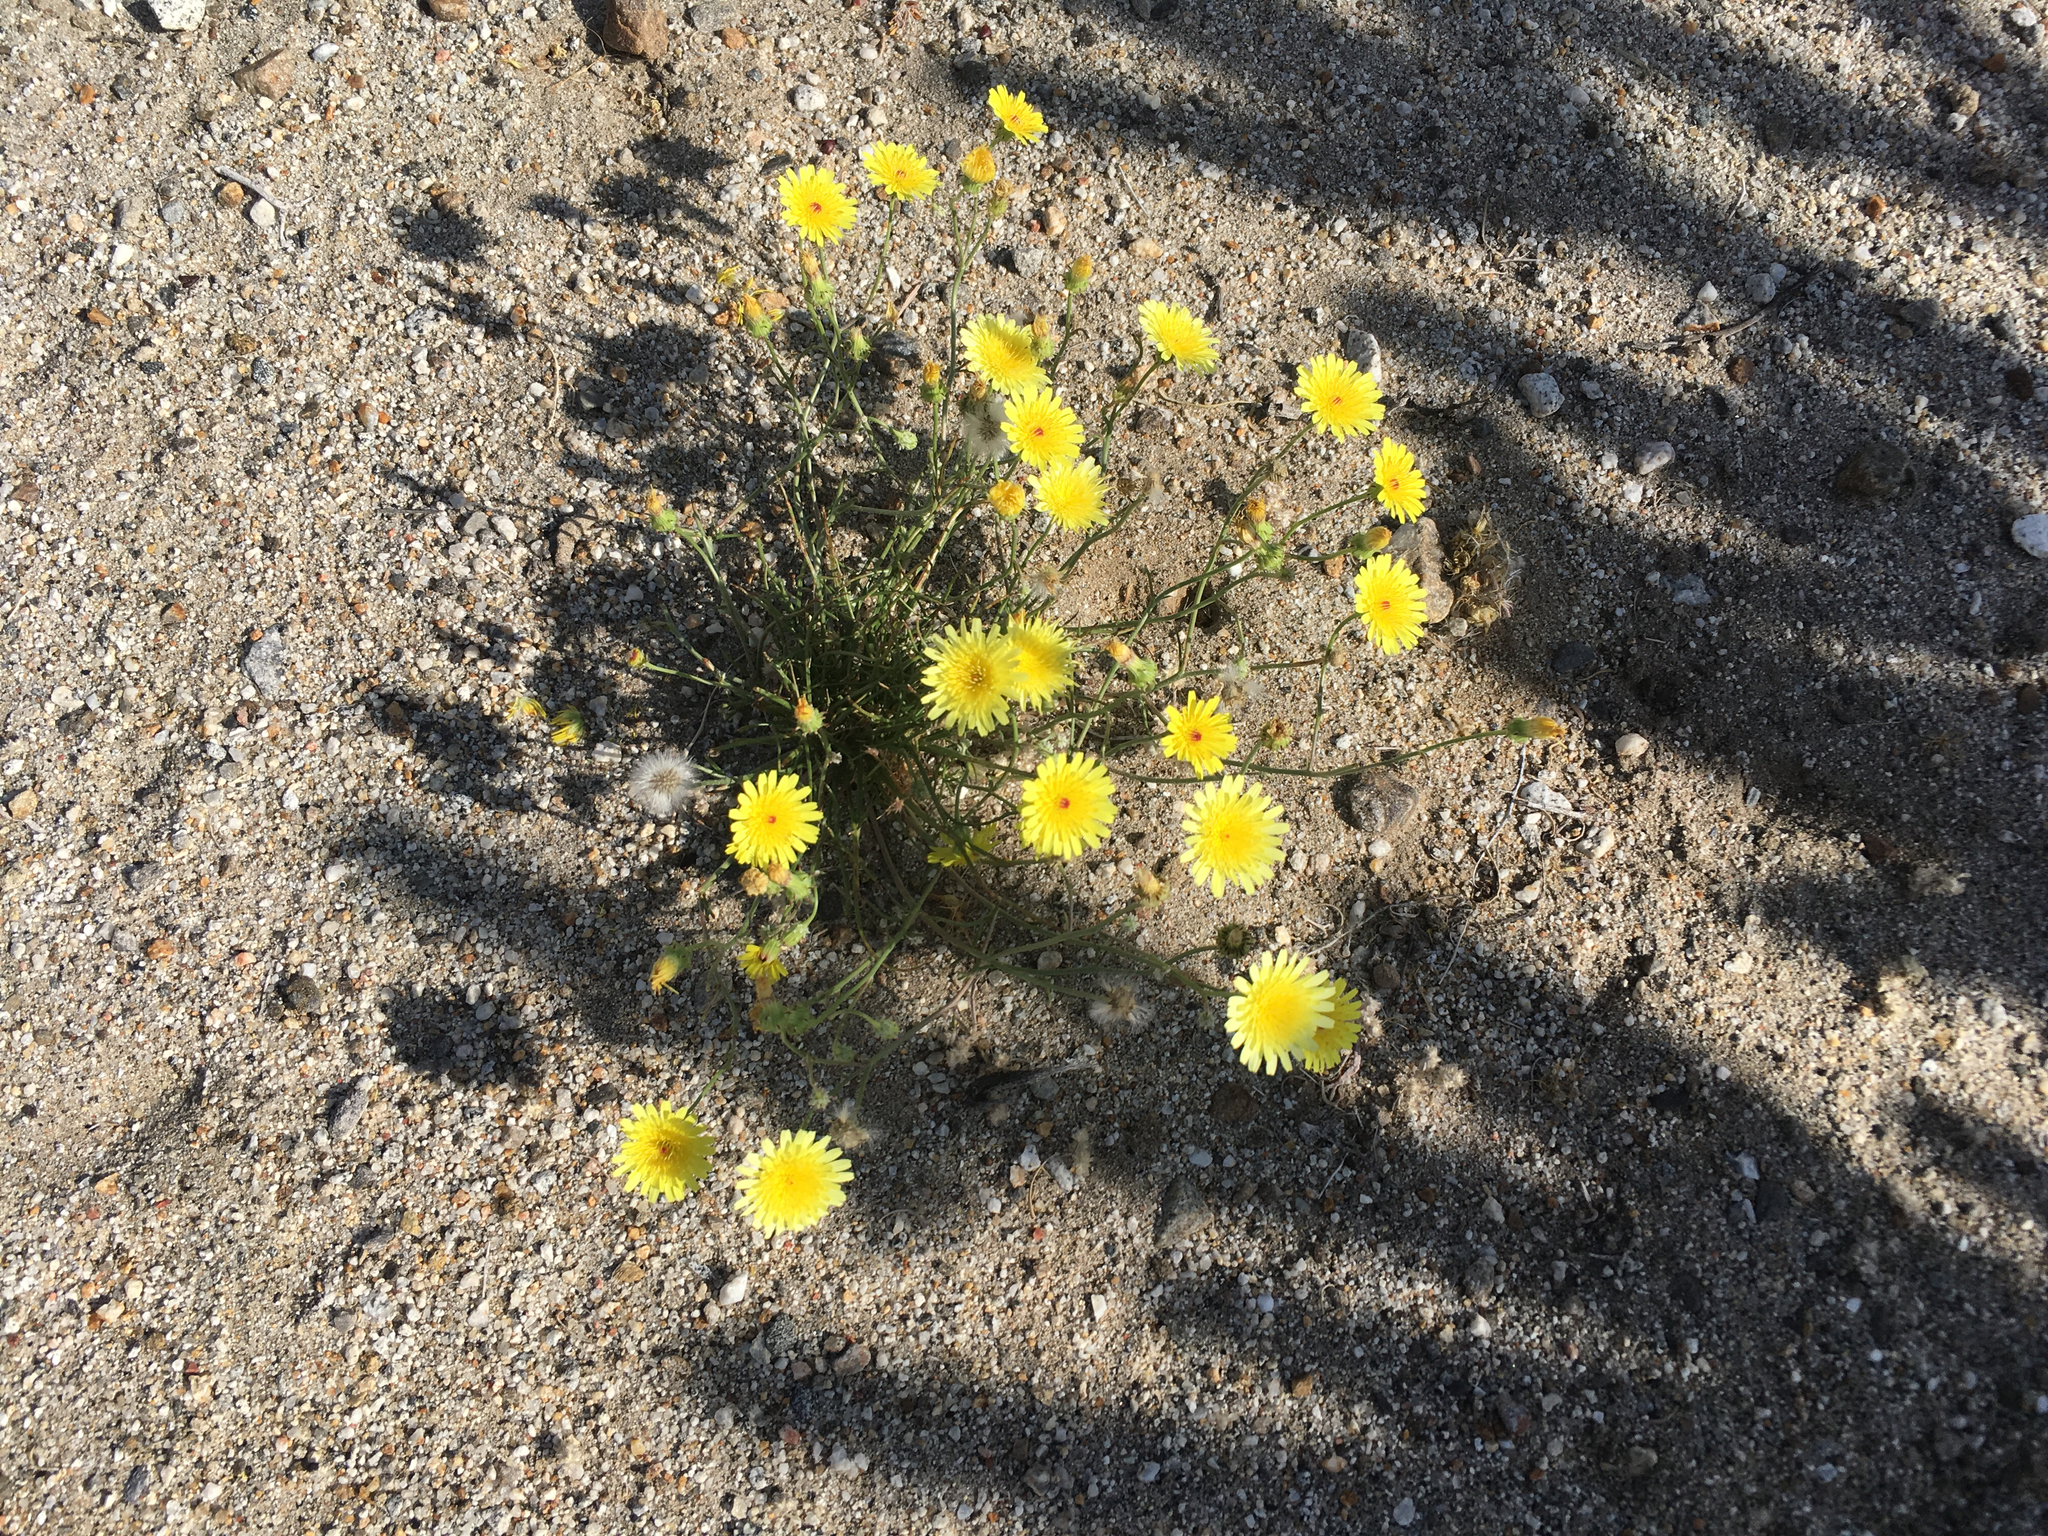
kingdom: Plantae
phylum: Tracheophyta
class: Magnoliopsida
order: Asterales
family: Asteraceae
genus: Malacothrix
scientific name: Malacothrix glabrata
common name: Smooth desert-dandelion
